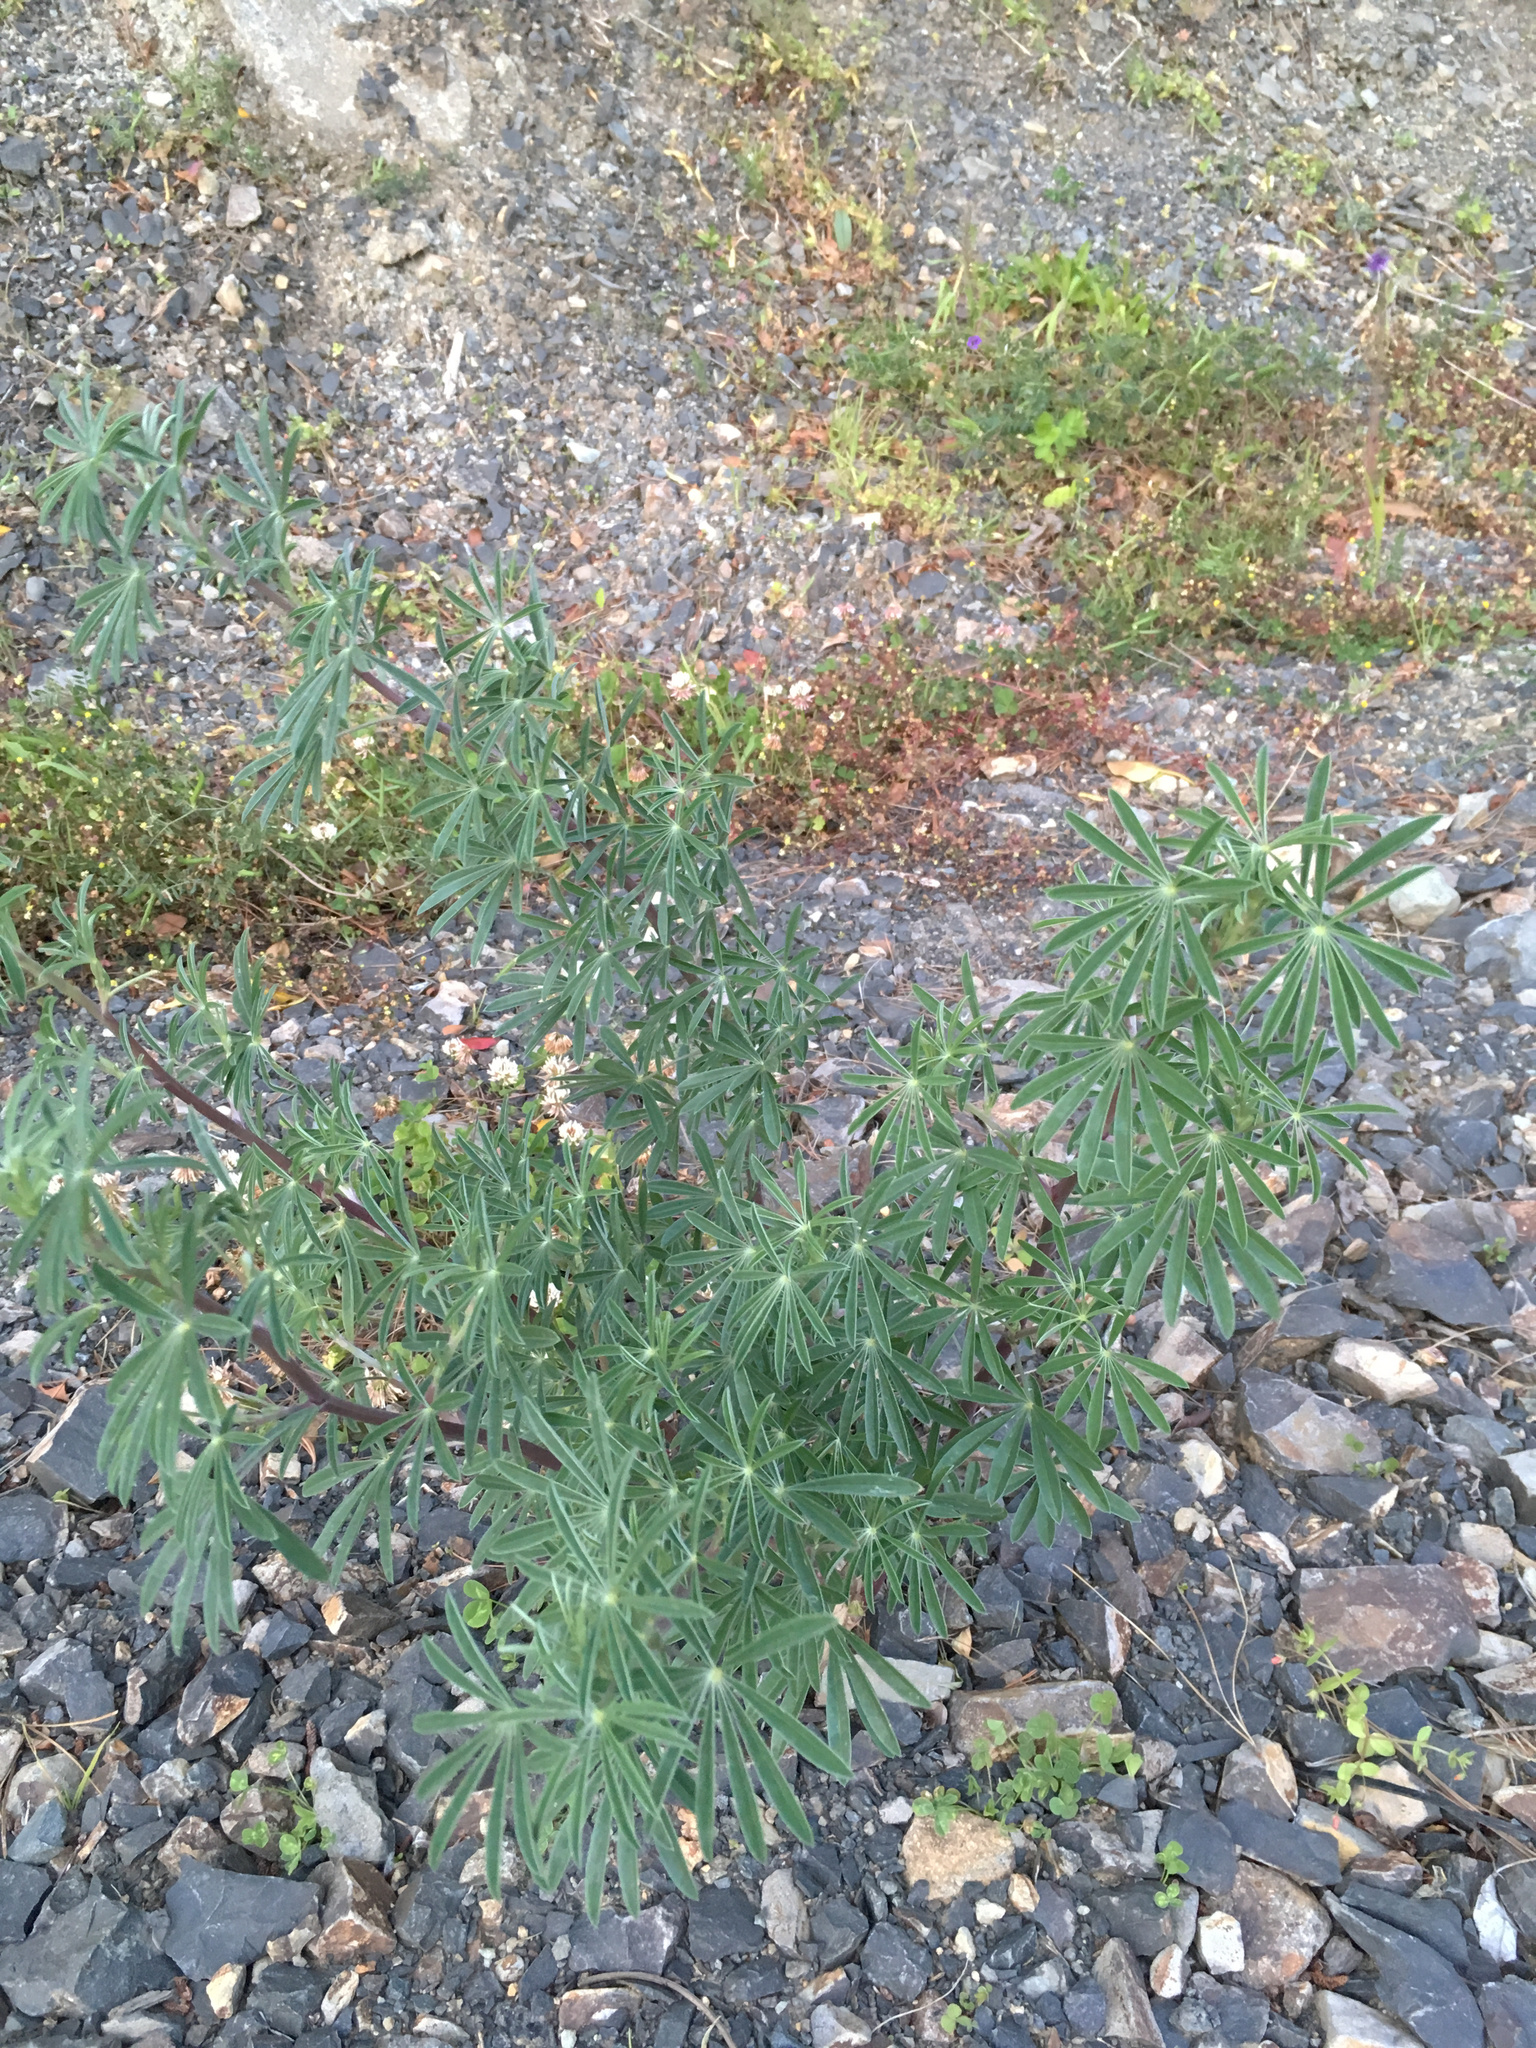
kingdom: Plantae
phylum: Tracheophyta
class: Magnoliopsida
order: Fabales
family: Fabaceae
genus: Lupinus
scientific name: Lupinus arboreus
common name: Yellow bush lupine
